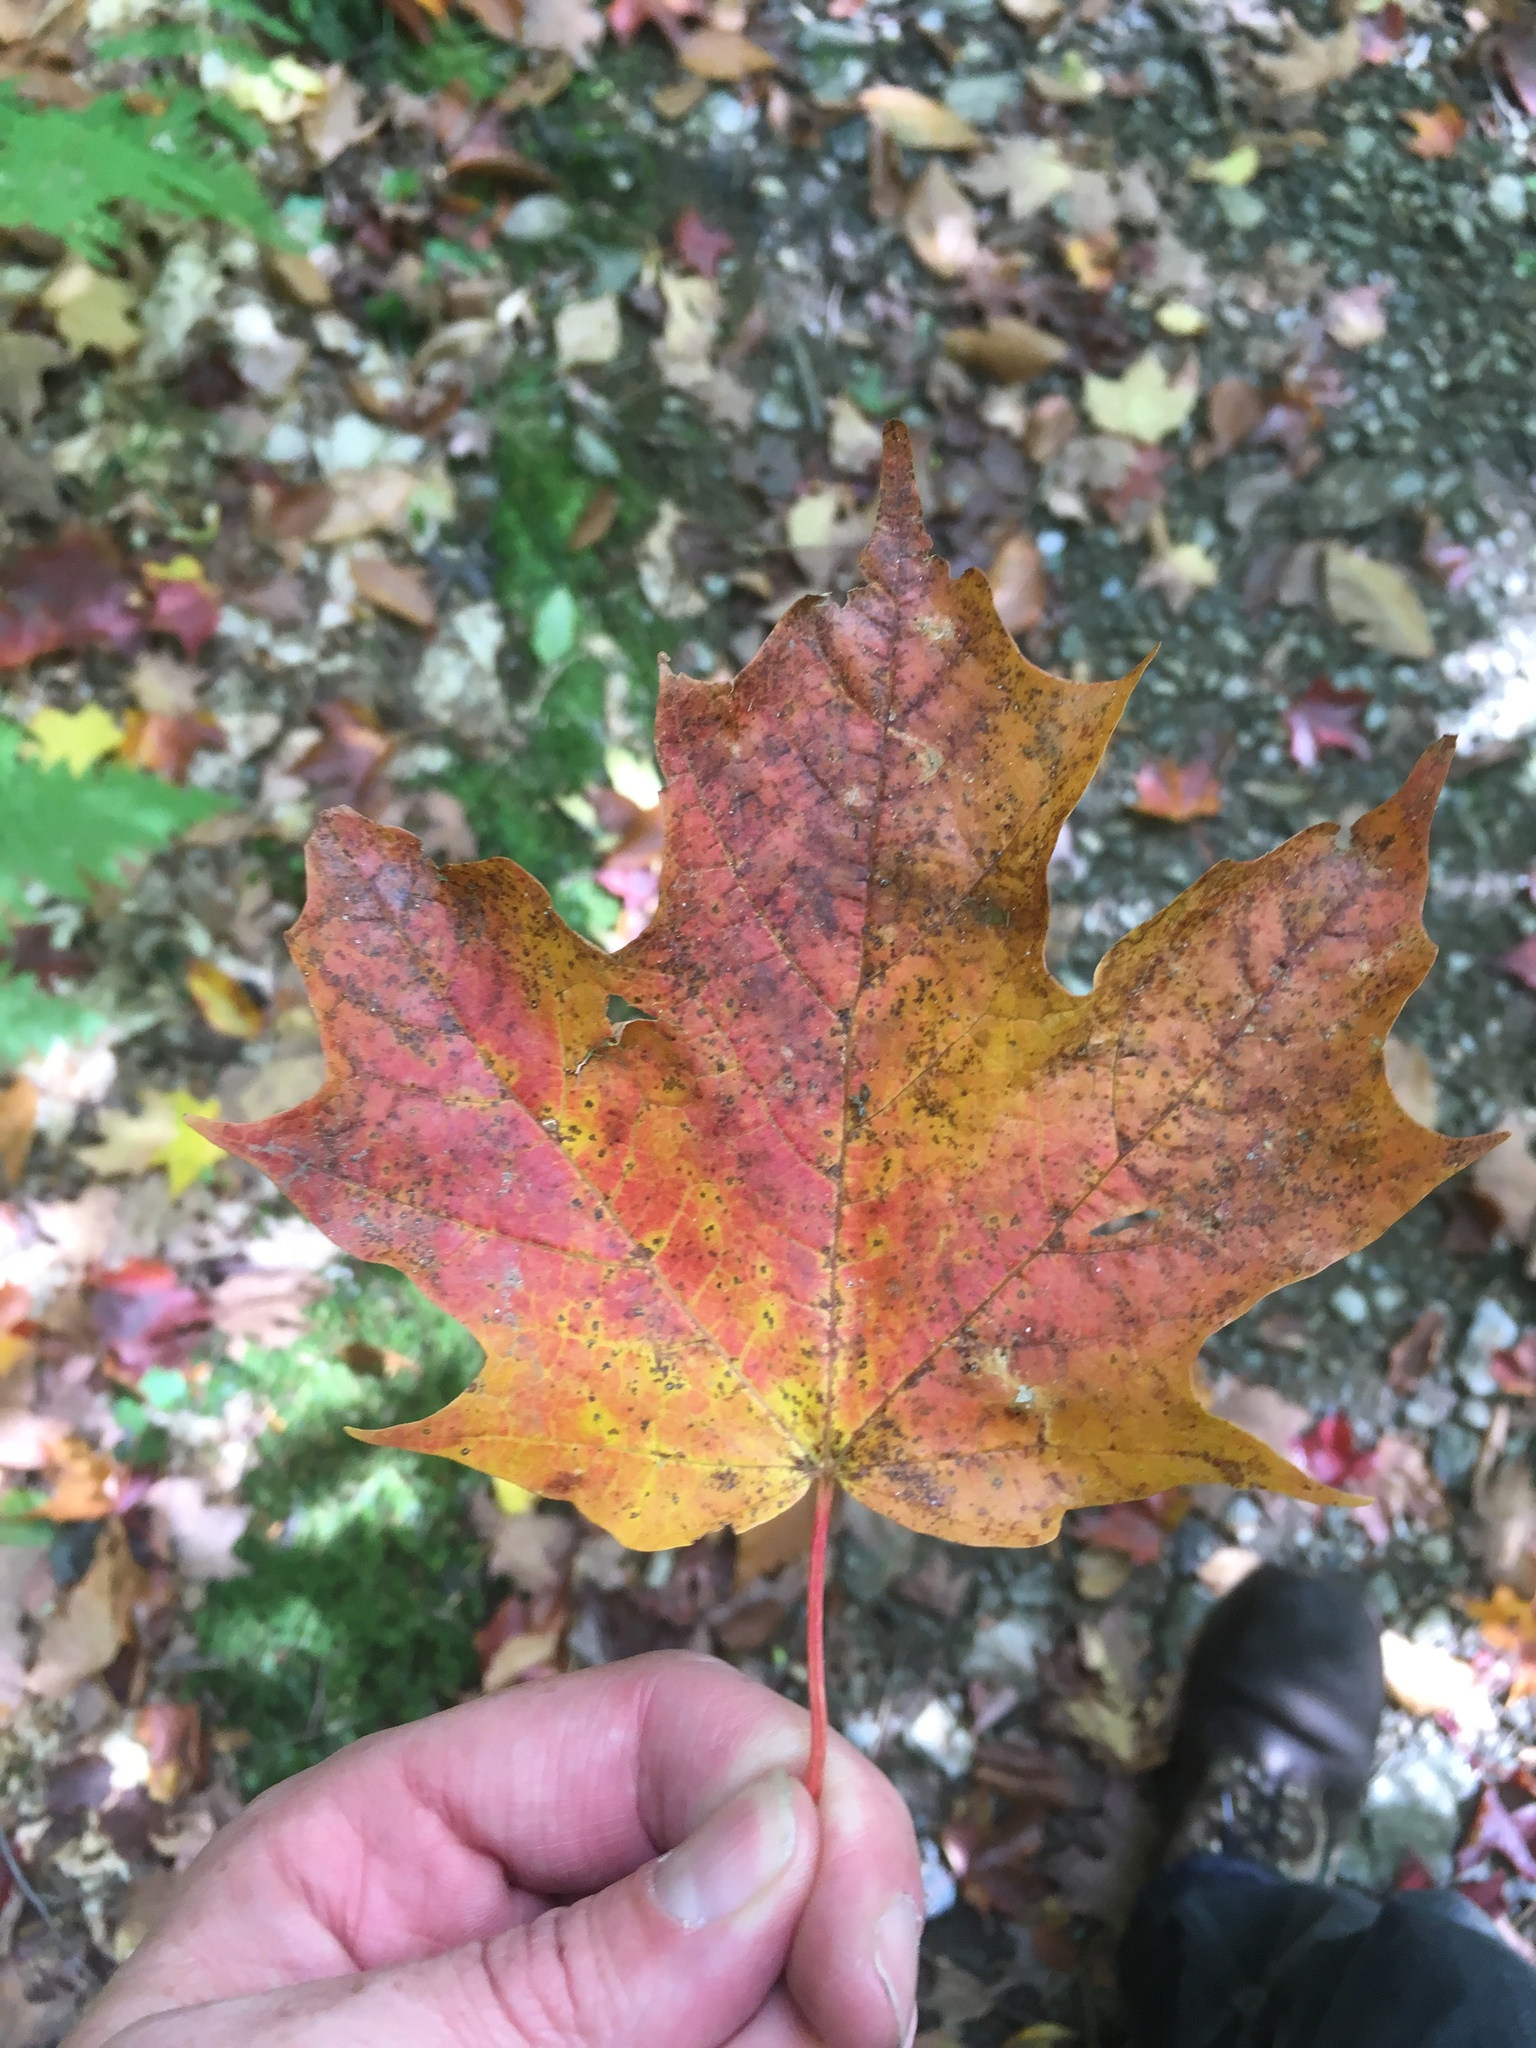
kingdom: Plantae
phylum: Tracheophyta
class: Magnoliopsida
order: Sapindales
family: Sapindaceae
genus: Acer
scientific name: Acer saccharum
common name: Sugar maple
